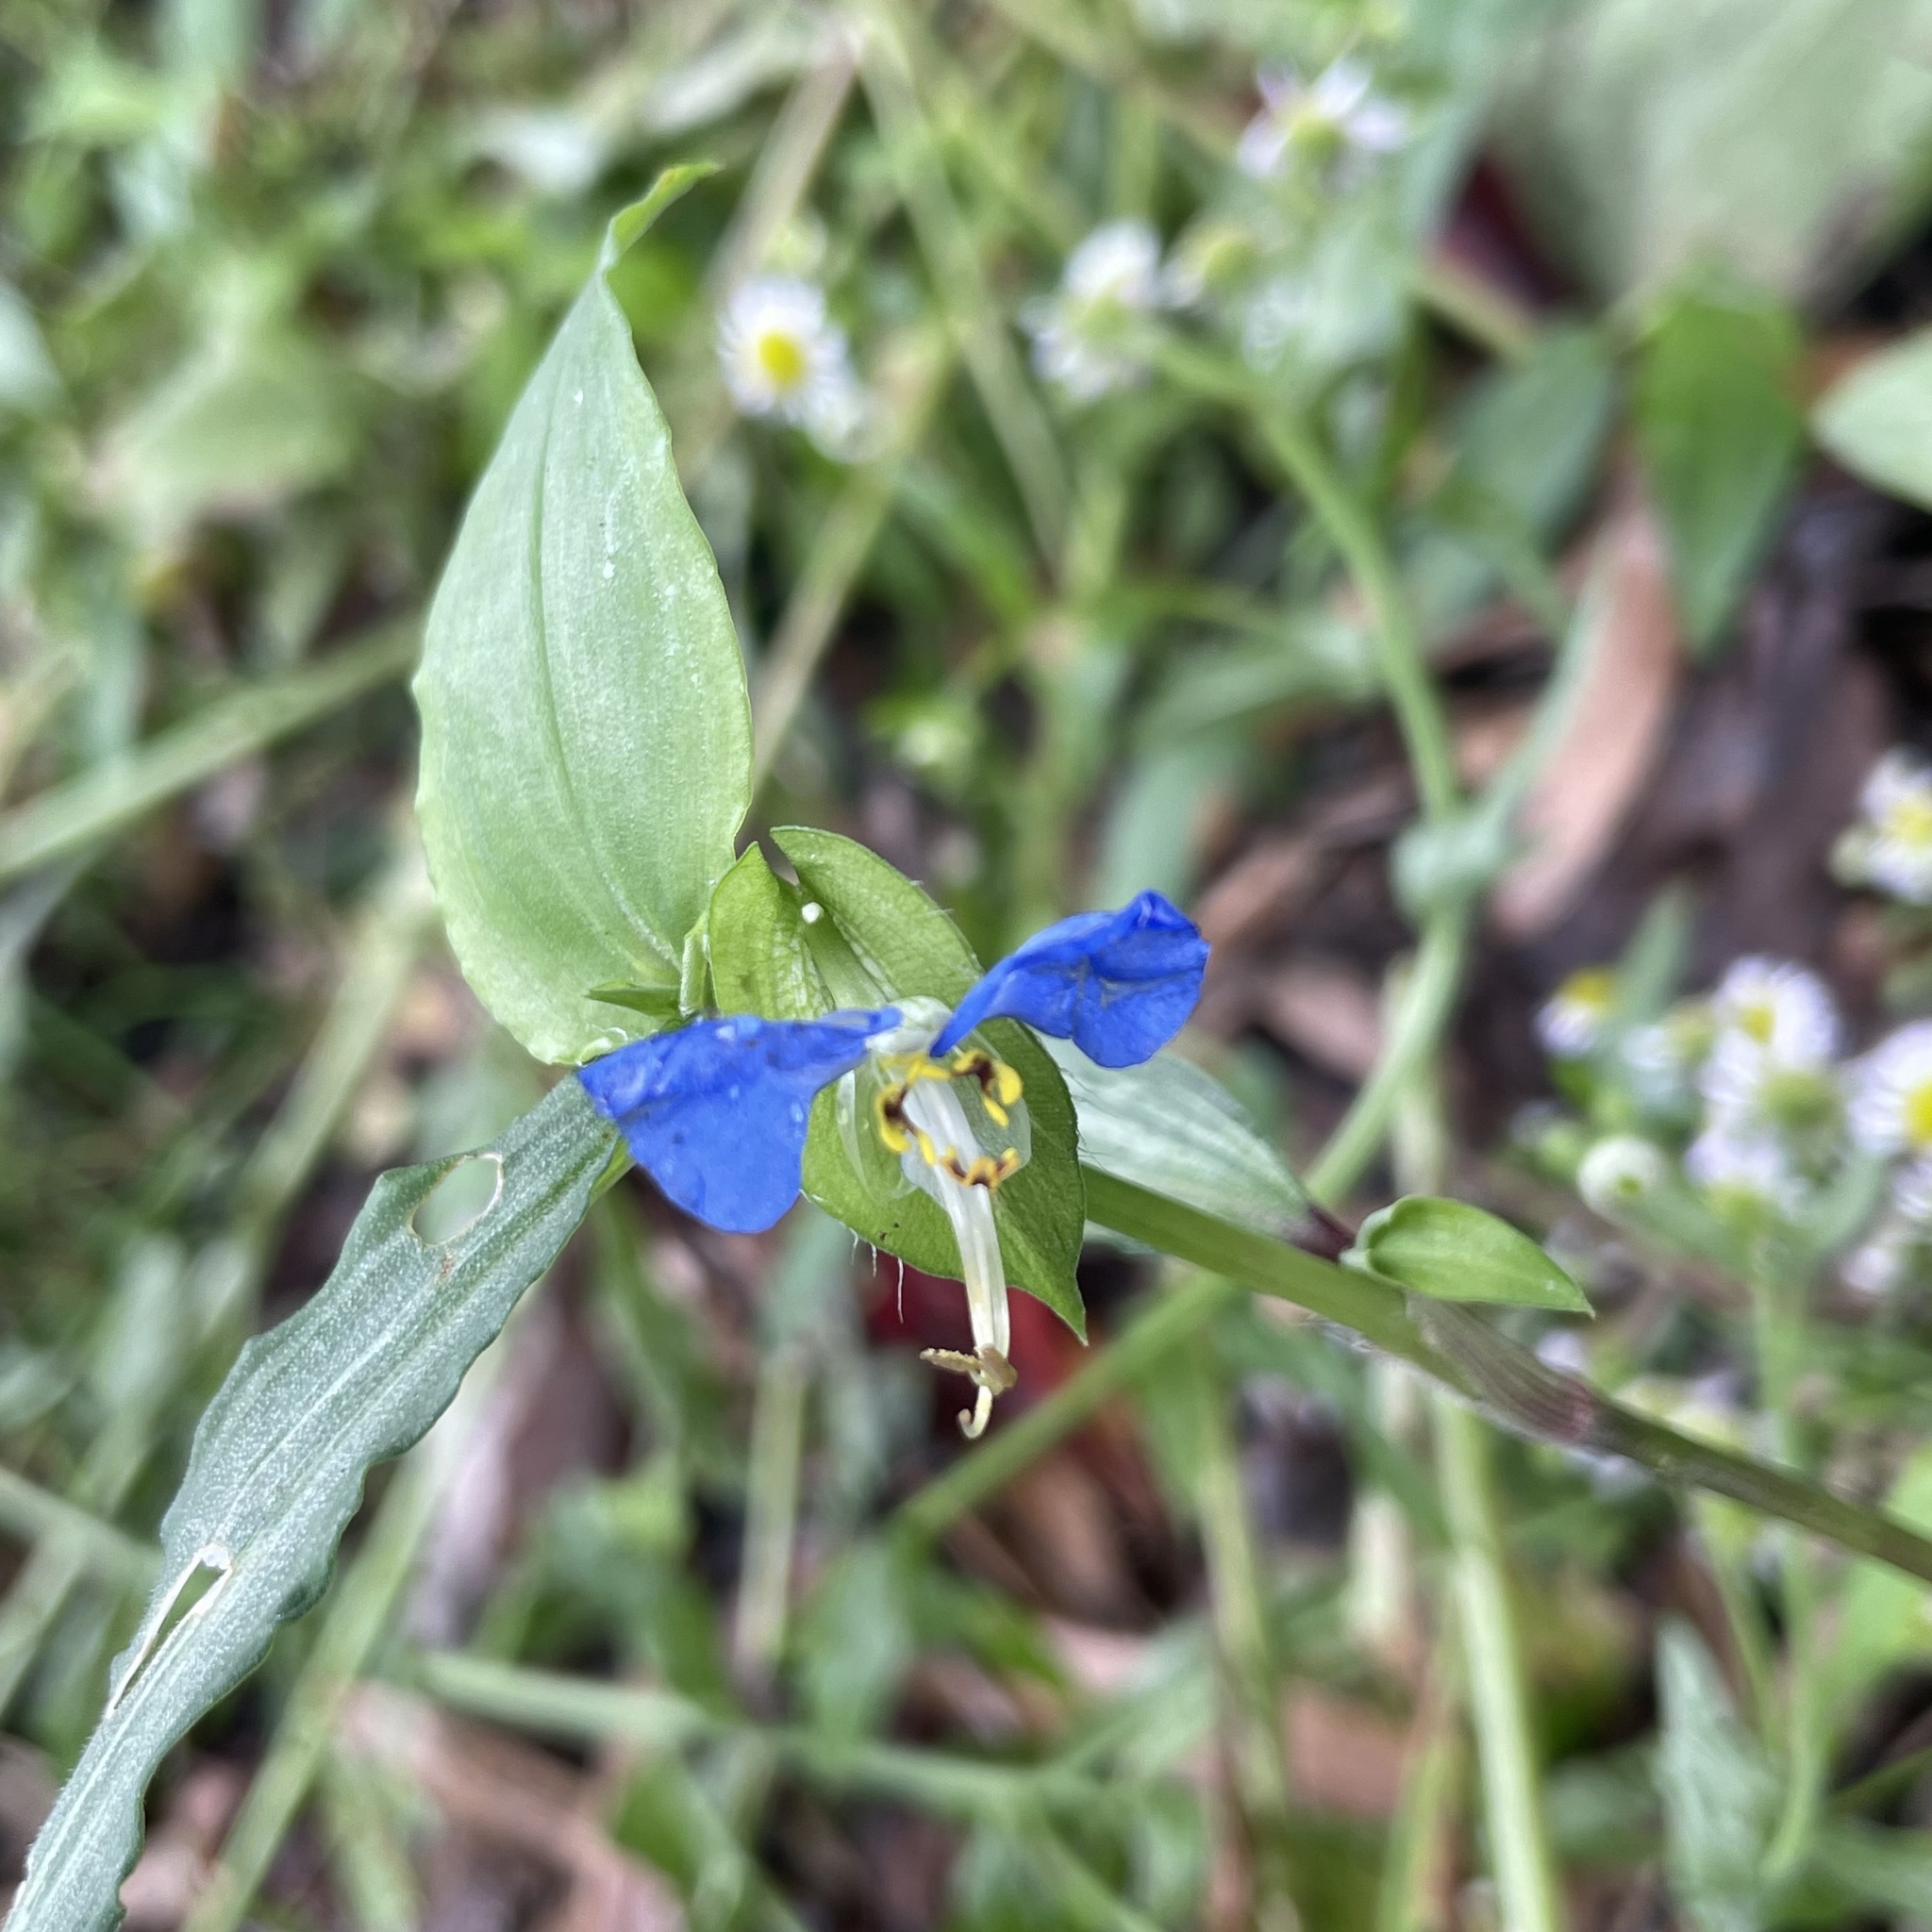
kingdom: Plantae
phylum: Tracheophyta
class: Liliopsida
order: Commelinales
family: Commelinaceae
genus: Commelina
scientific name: Commelina communis
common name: Asiatic dayflower
